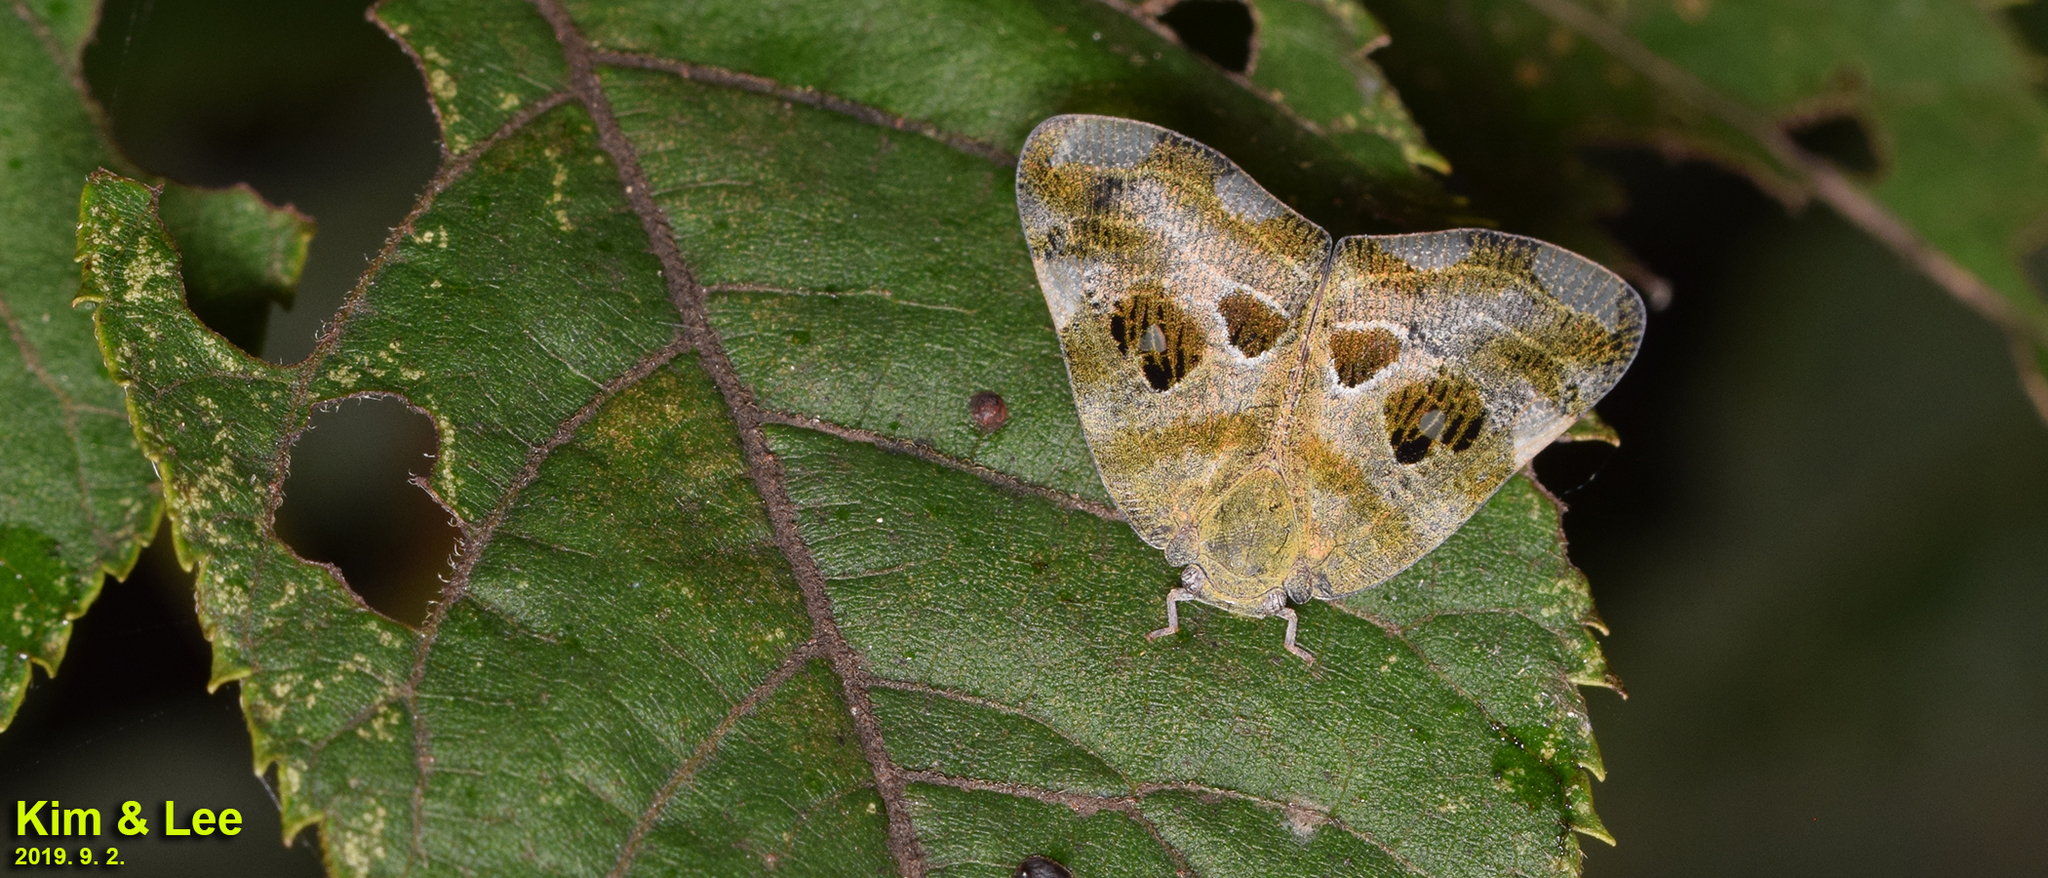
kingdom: Animalia
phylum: Arthropoda
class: Insecta
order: Hemiptera
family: Ricaniidae
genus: Ricania
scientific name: Ricania speculum
